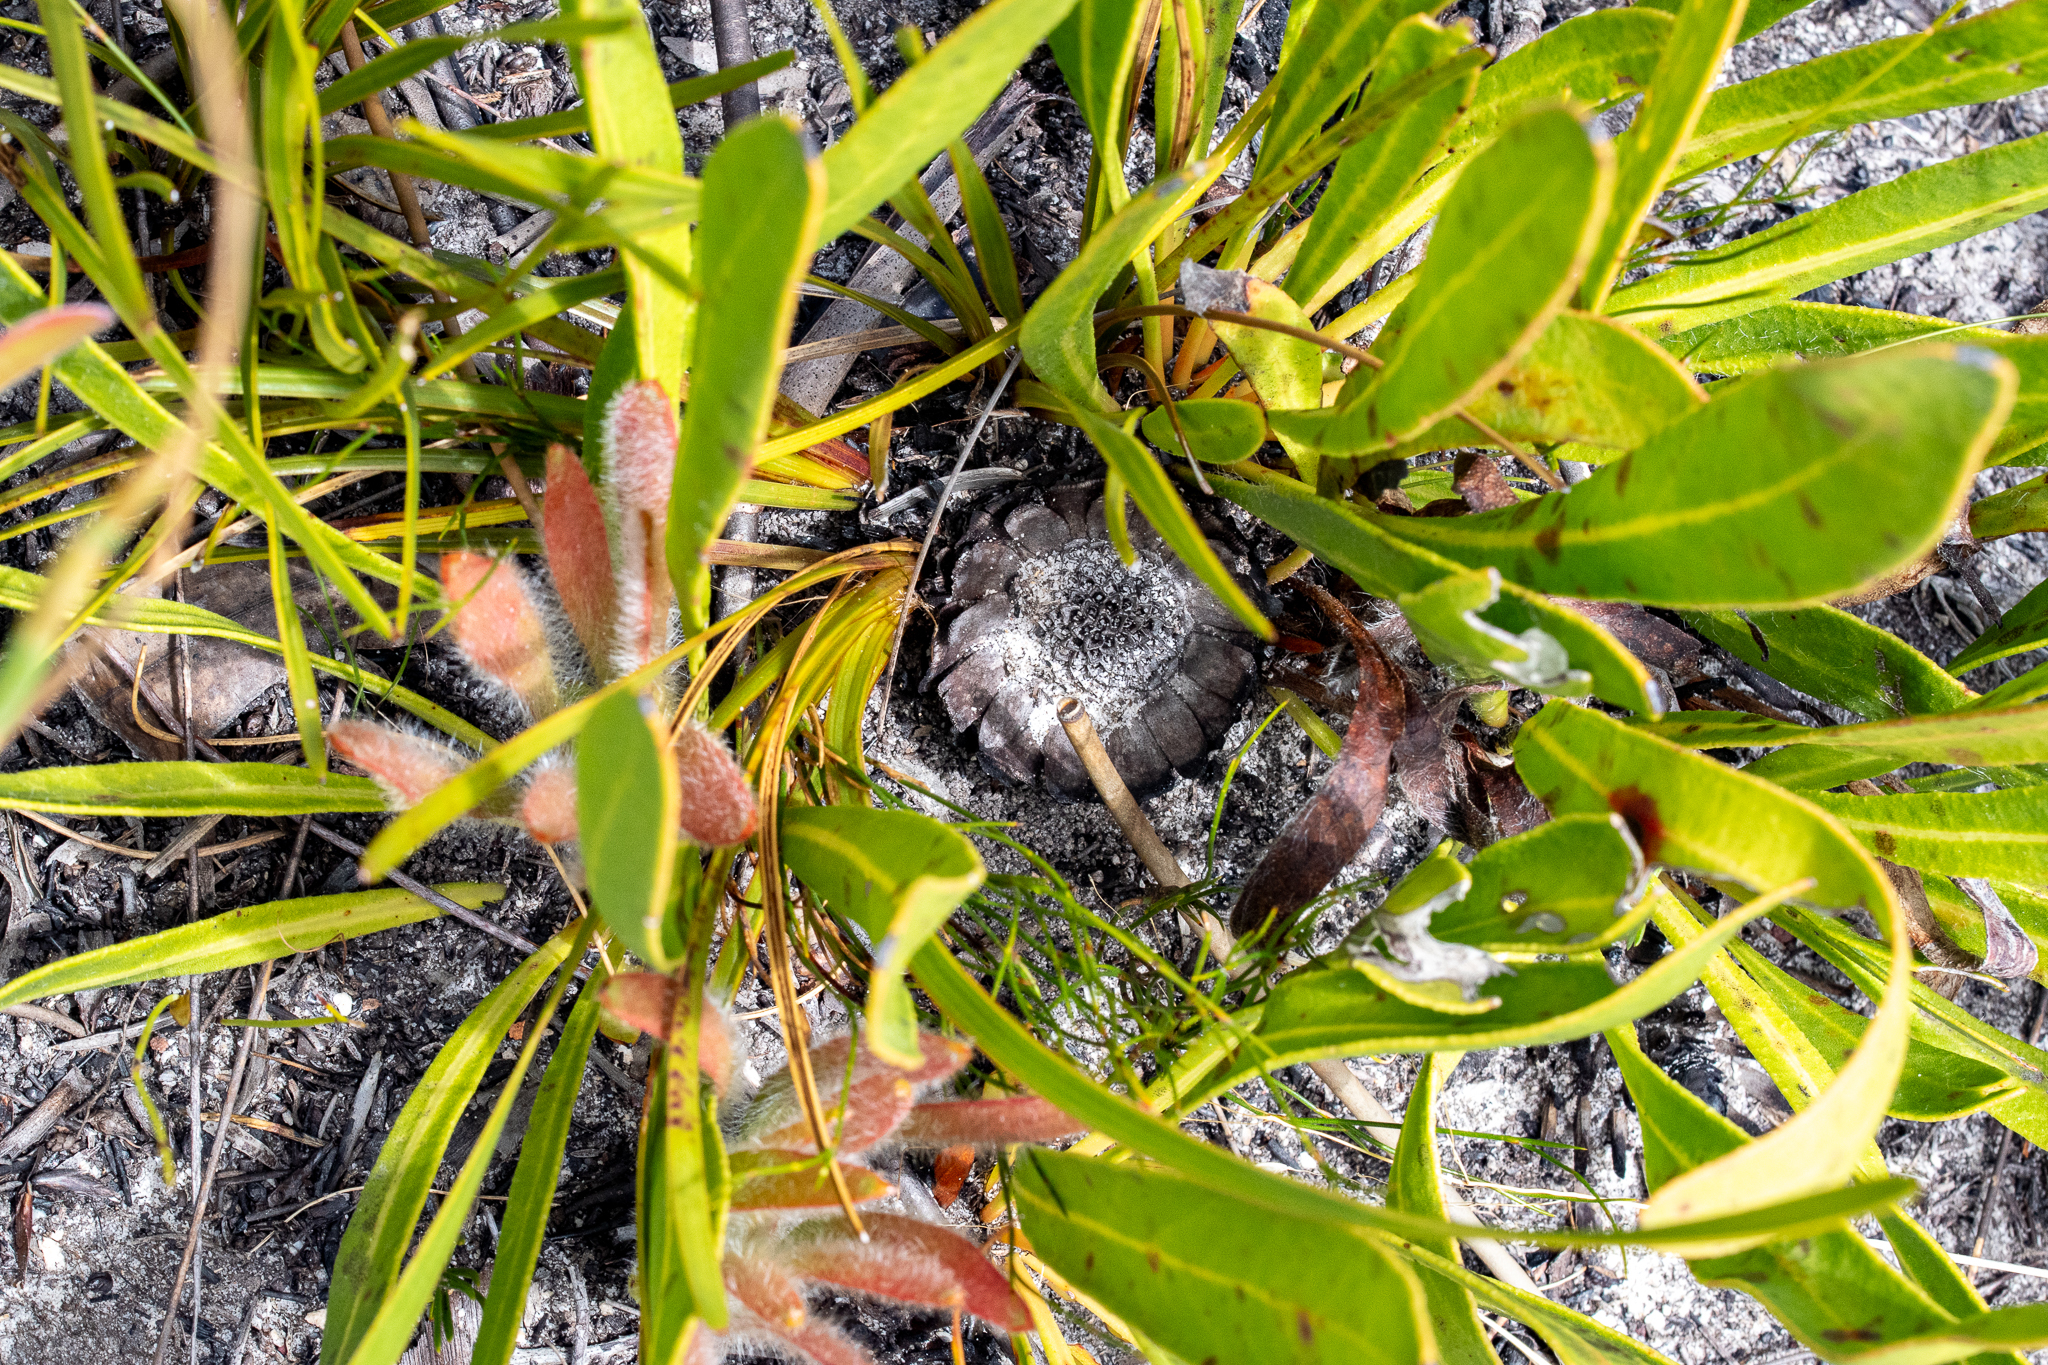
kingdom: Plantae
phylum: Tracheophyta
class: Magnoliopsida
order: Proteales
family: Proteaceae
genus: Protea
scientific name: Protea scabra
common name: Sandpaper-leaf sugarbush
